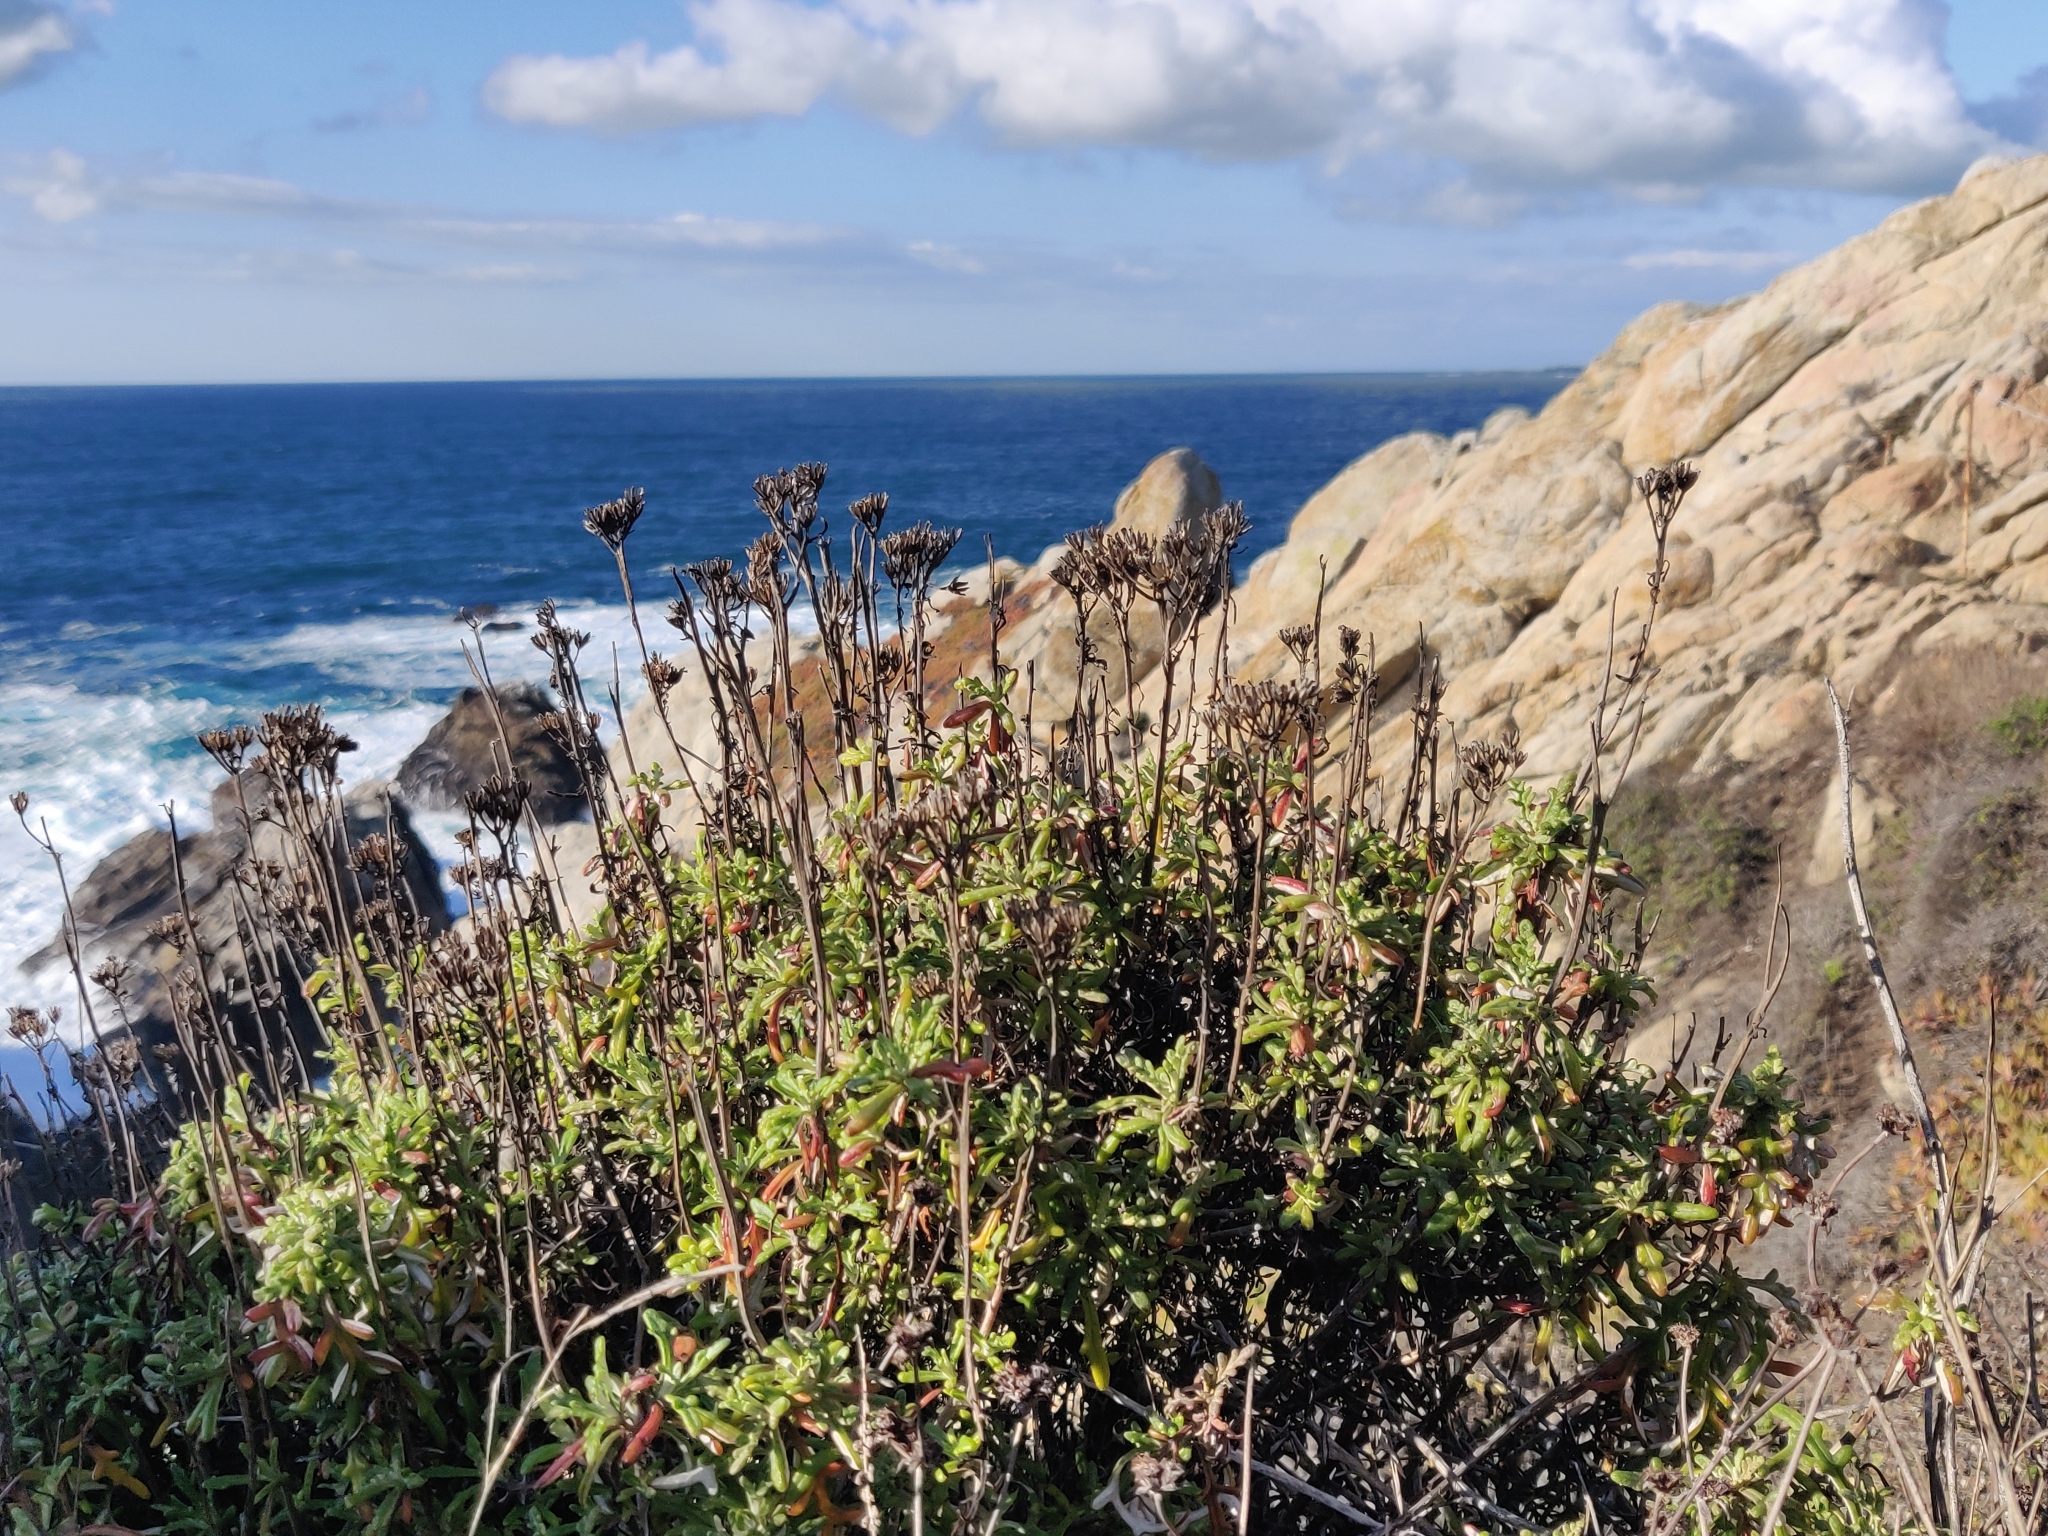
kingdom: Plantae
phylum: Tracheophyta
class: Magnoliopsida
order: Asterales
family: Asteraceae
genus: Eriophyllum
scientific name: Eriophyllum staechadifolium
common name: Lizardtail
